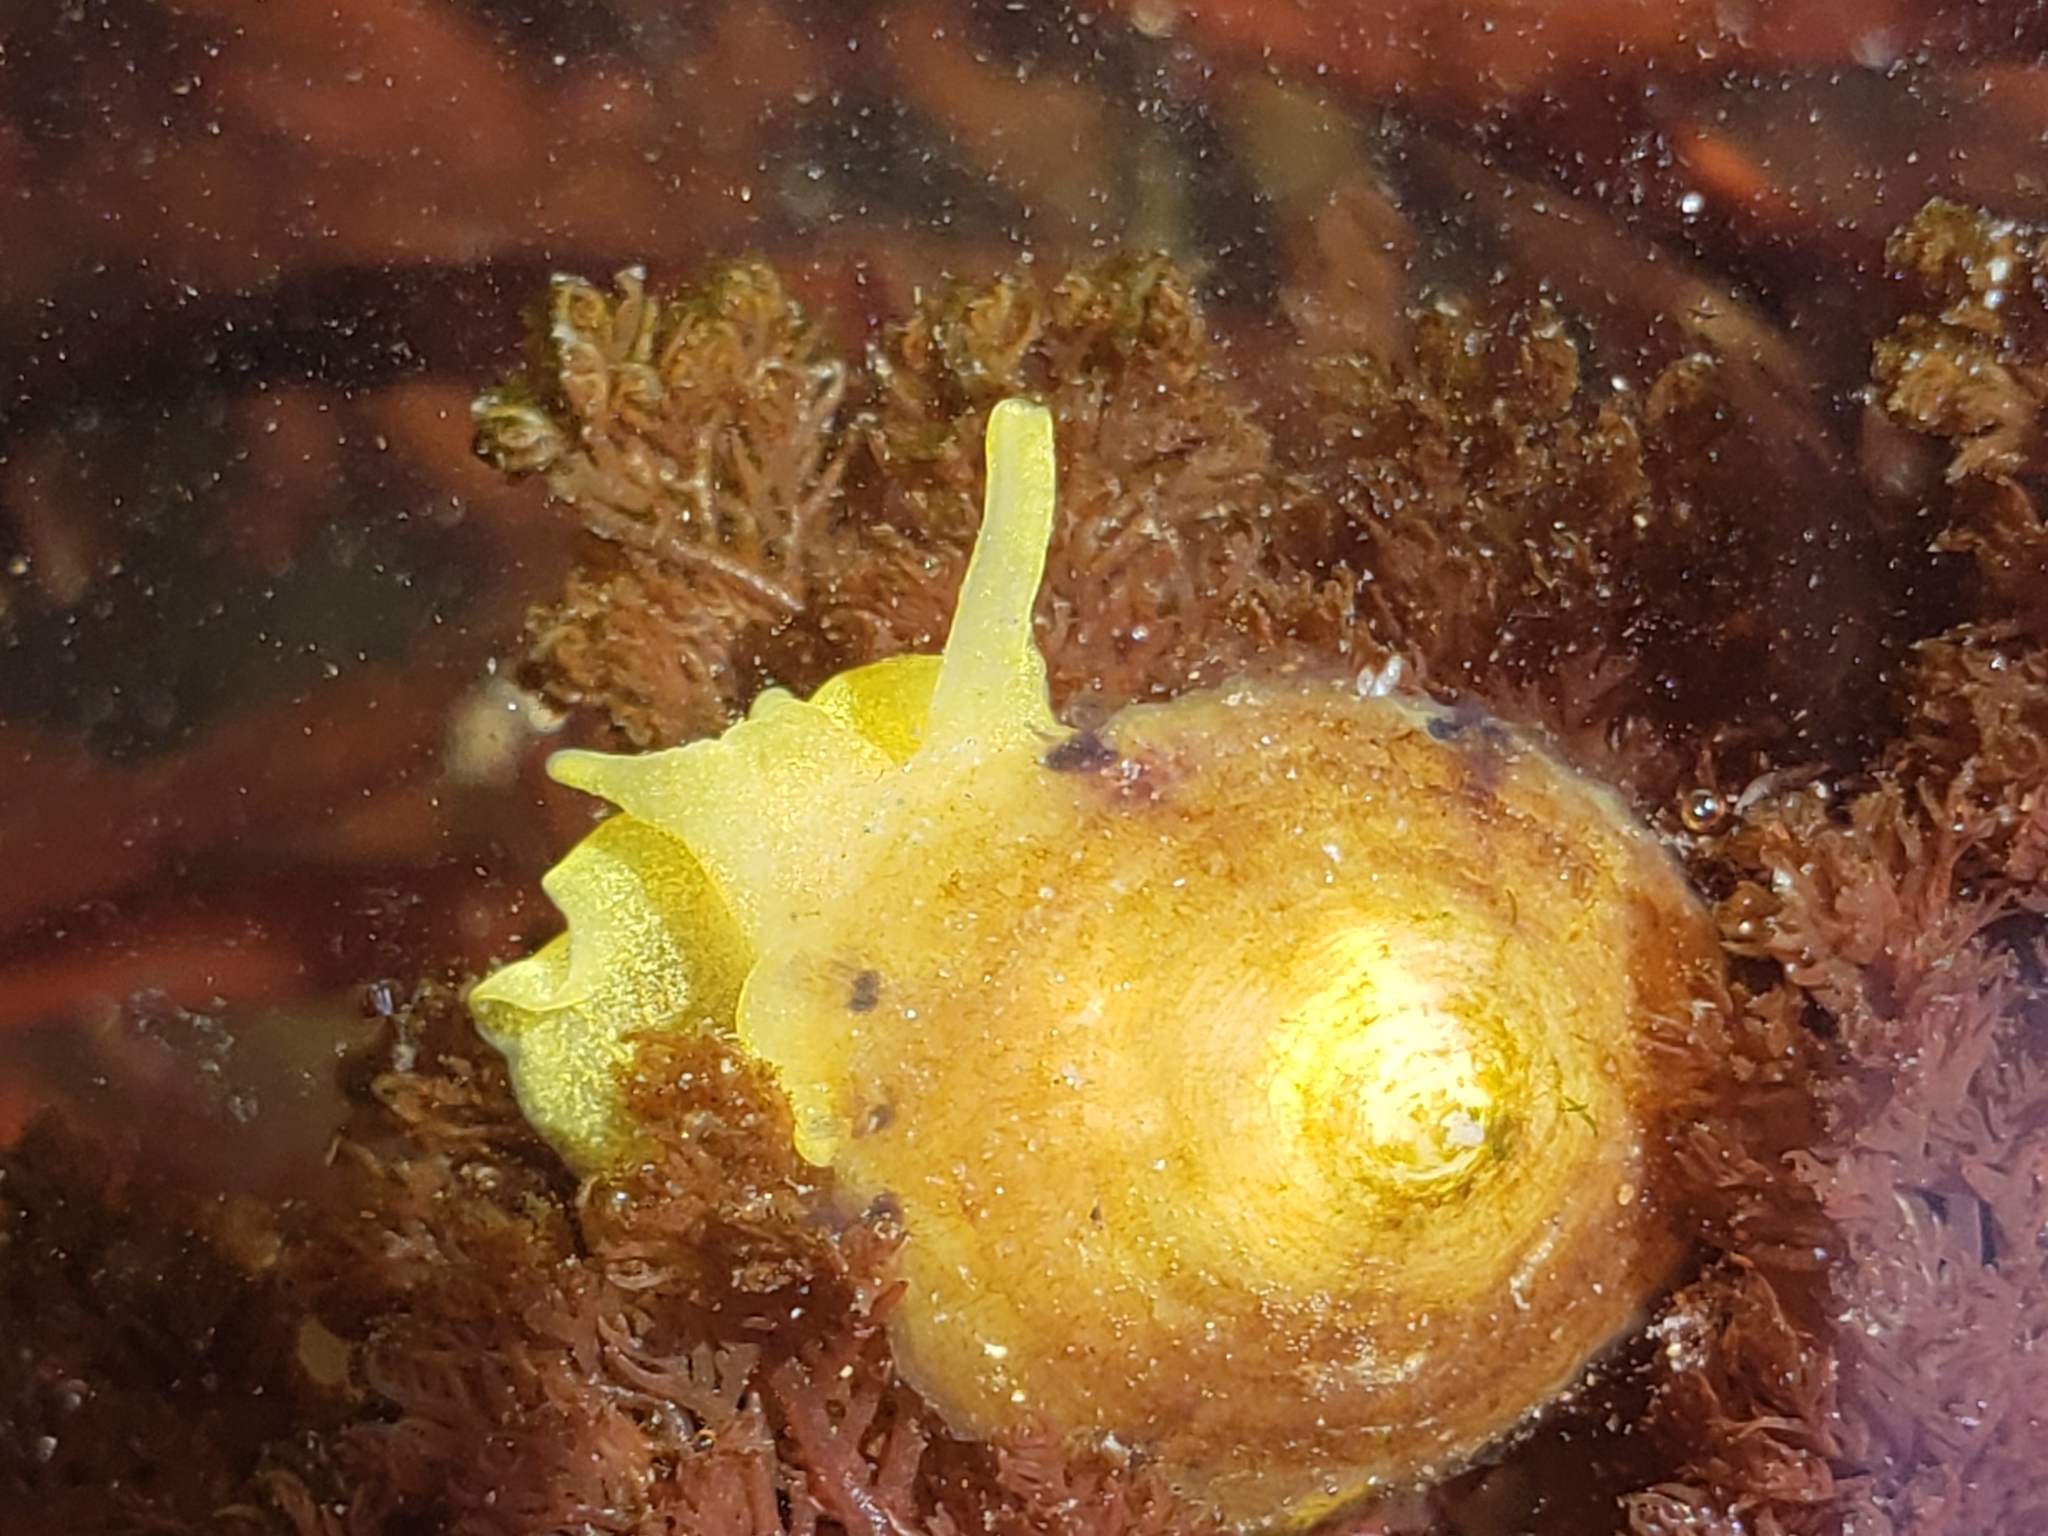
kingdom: Animalia
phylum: Mollusca
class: Gastropoda
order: Umbraculida
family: Tylodinidae
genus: Tylodina
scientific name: Tylodina fungina
